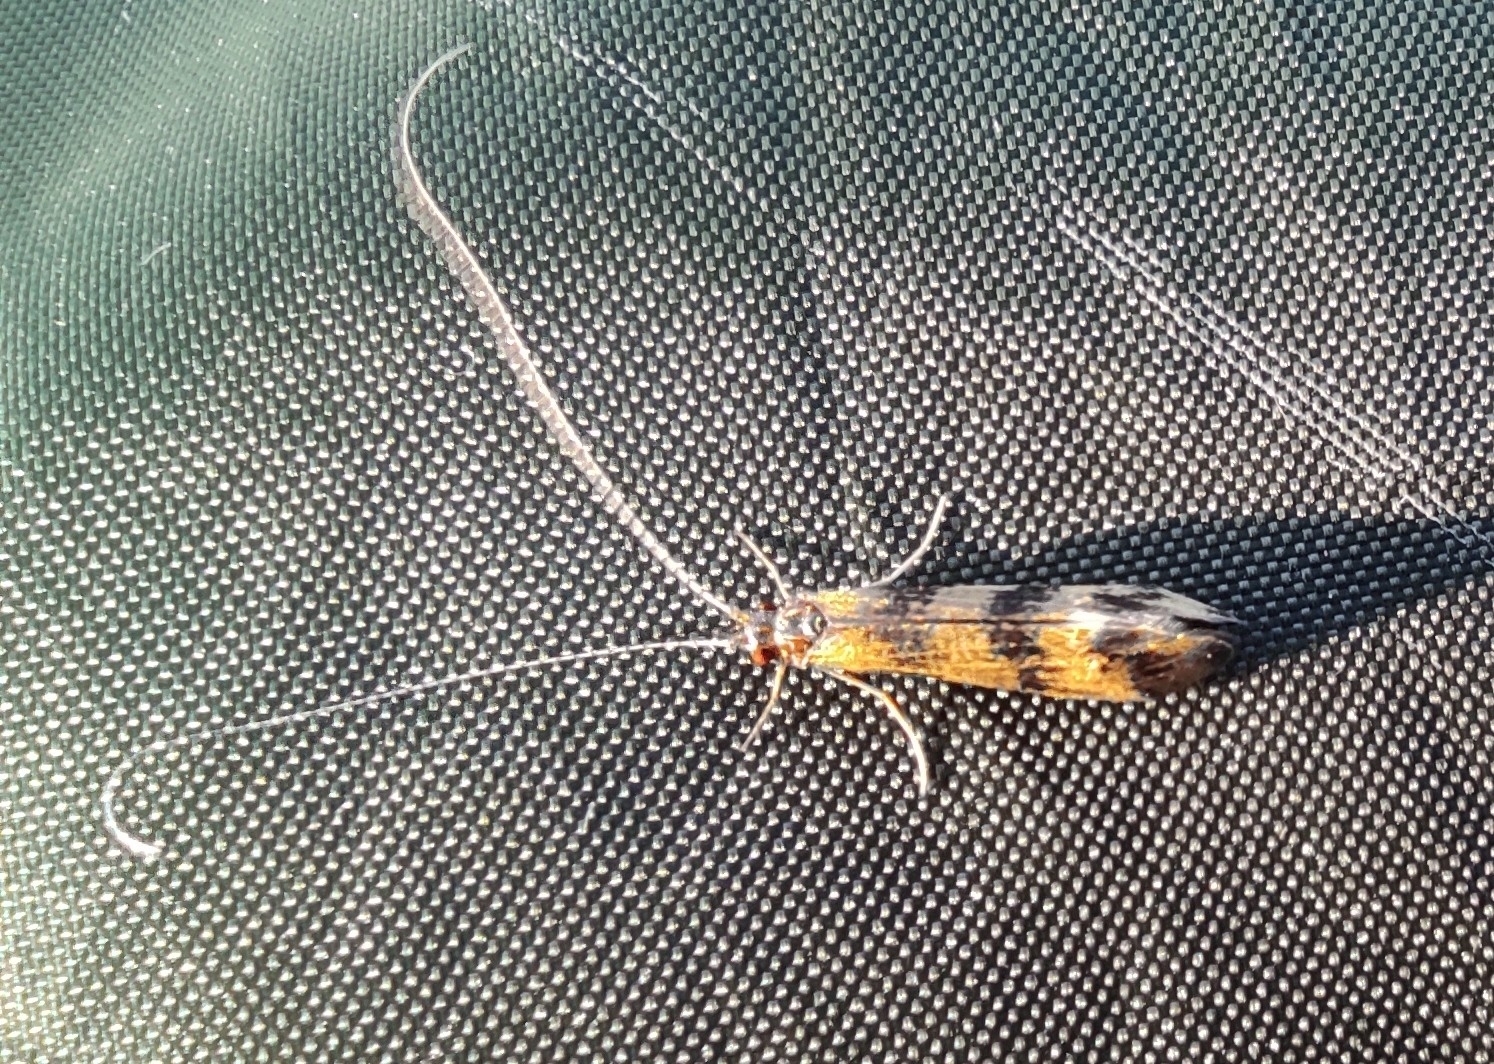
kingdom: Animalia
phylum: Arthropoda
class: Insecta
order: Trichoptera
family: Leptoceridae
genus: Mystacides
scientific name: Mystacides longicornis
